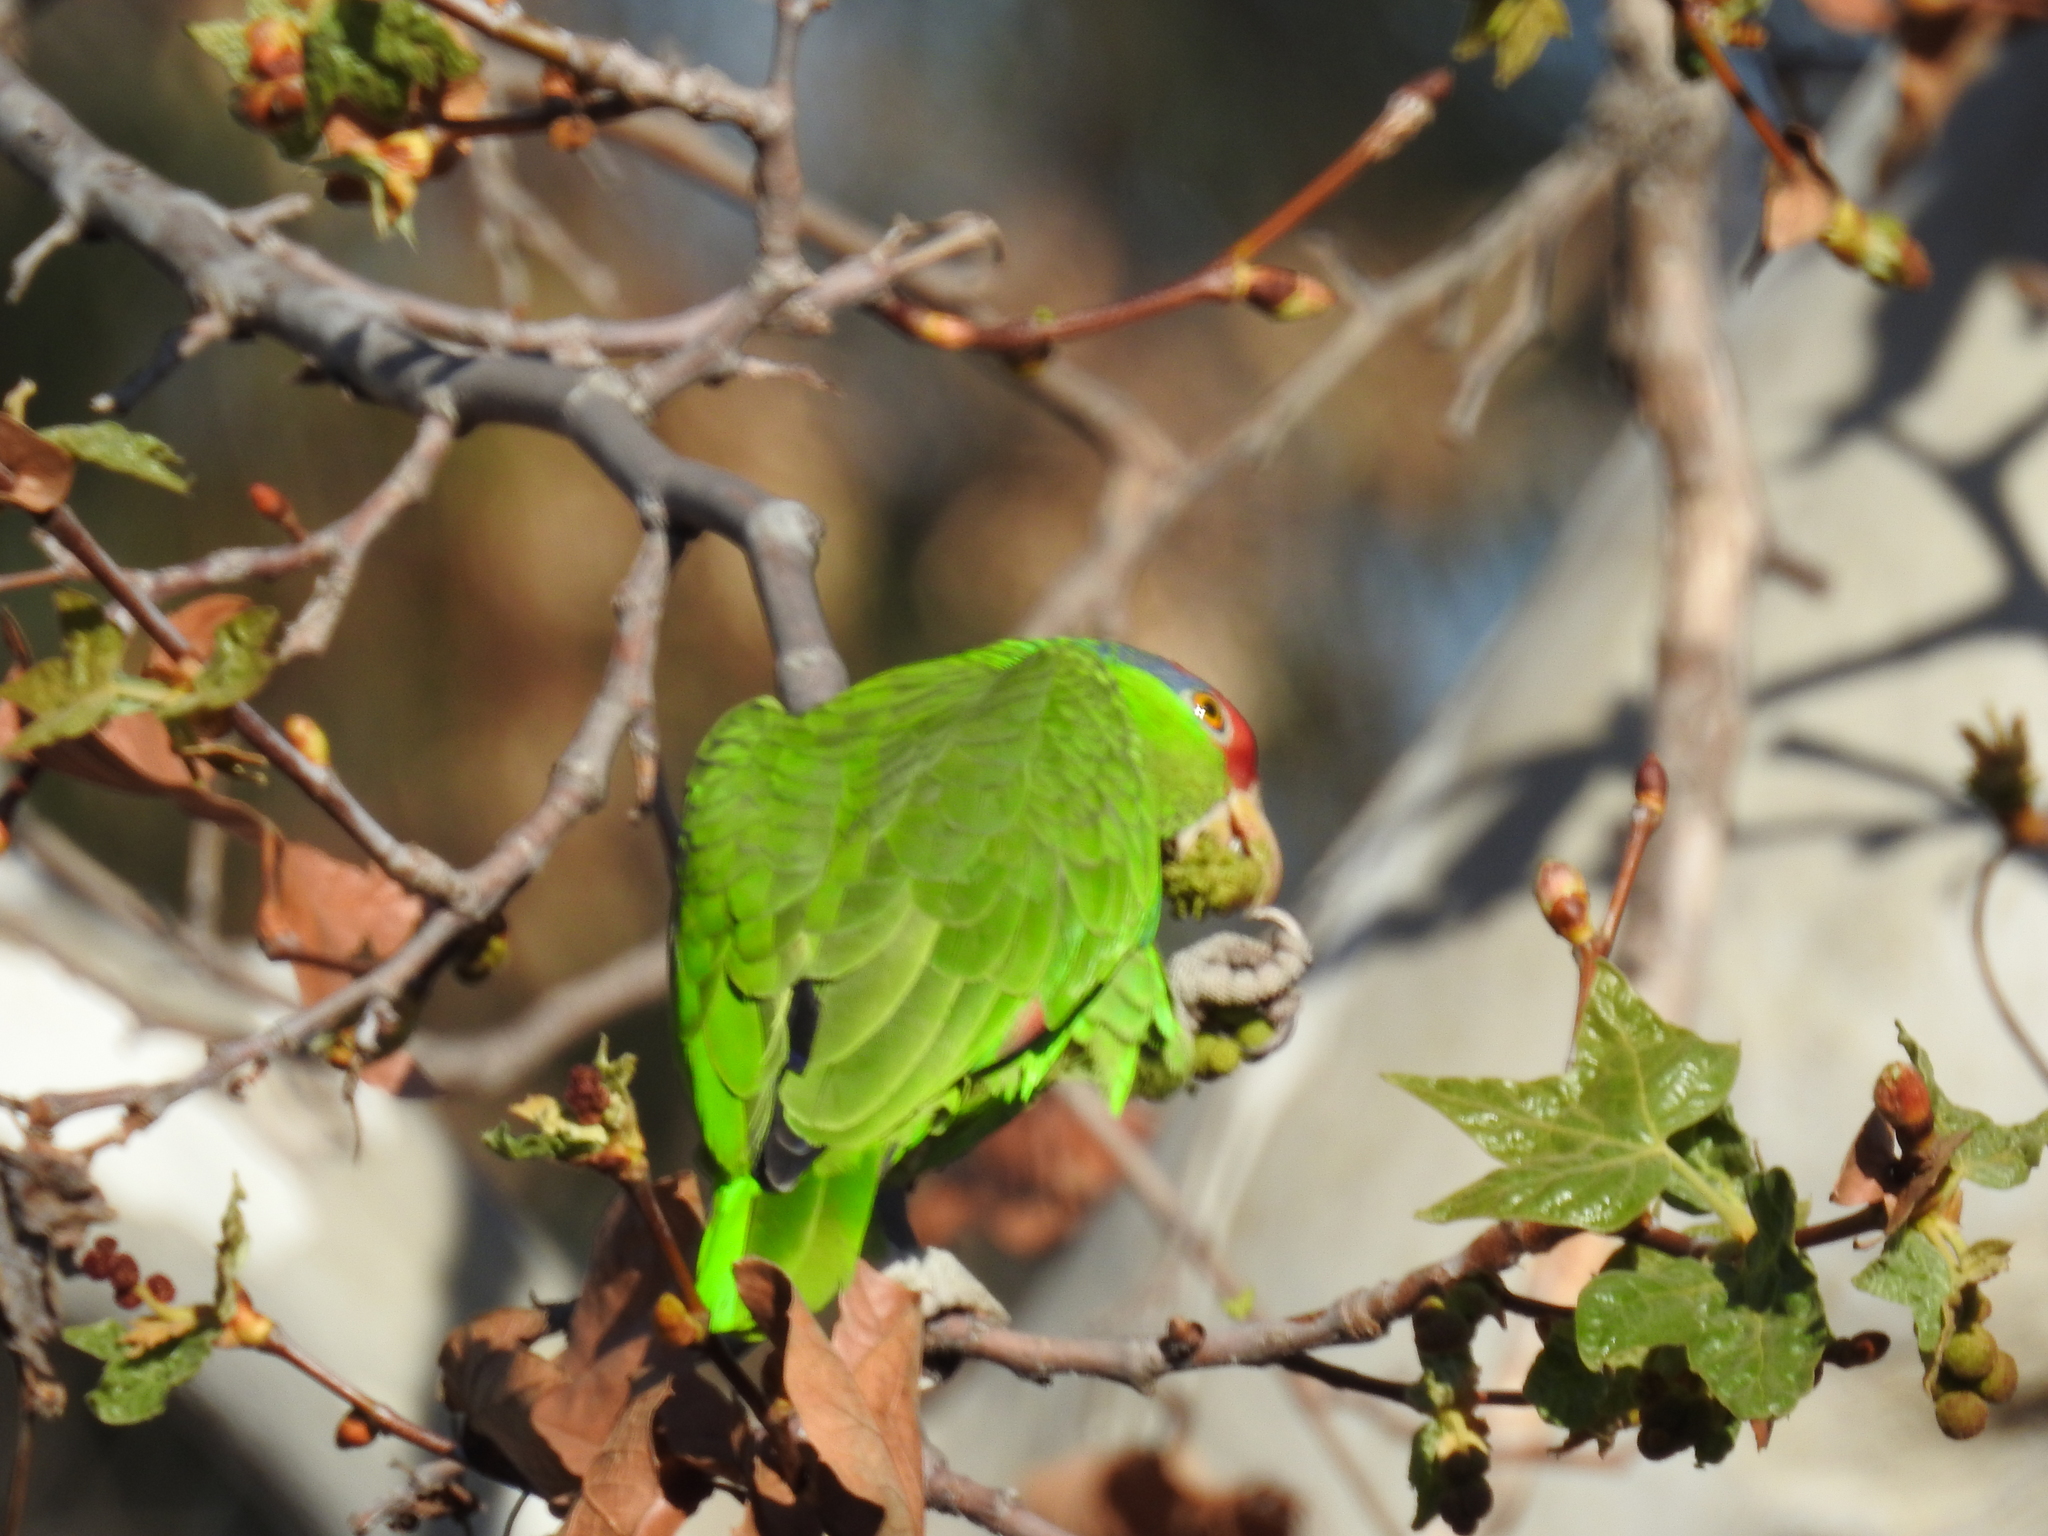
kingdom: Animalia
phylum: Chordata
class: Aves
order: Psittaciformes
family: Psittacidae
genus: Amazona
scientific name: Amazona viridigenalis
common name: Red-crowned amazon
